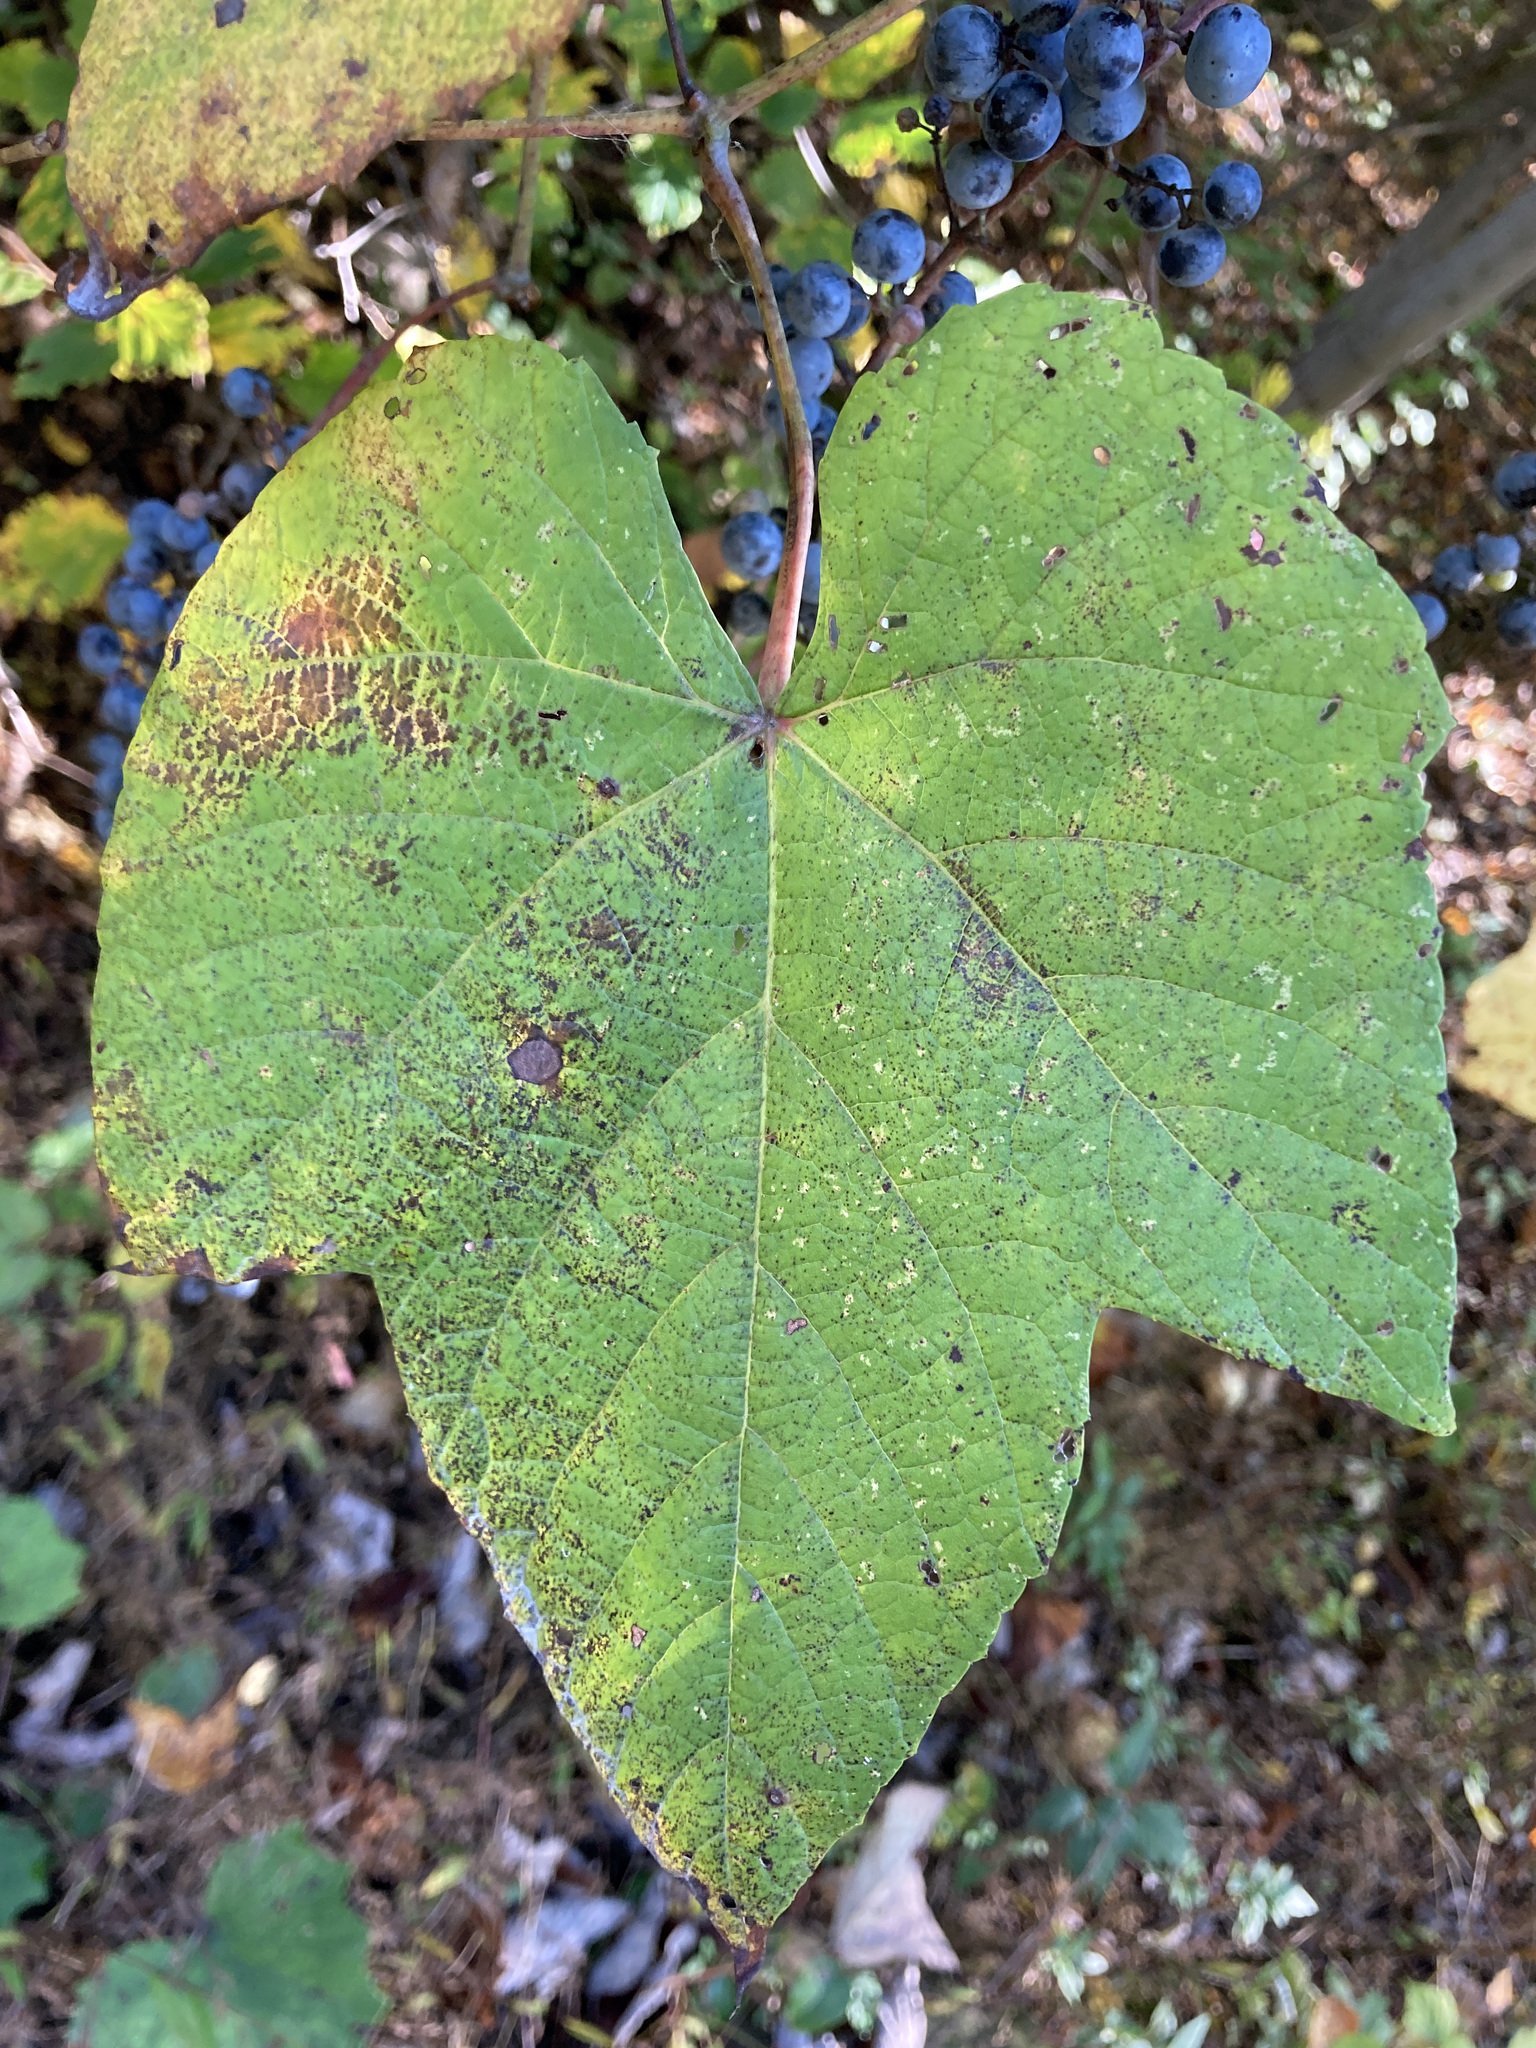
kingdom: Plantae
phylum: Tracheophyta
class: Magnoliopsida
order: Vitales
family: Vitaceae
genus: Vitis
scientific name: Vitis riparia
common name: Frost grape
